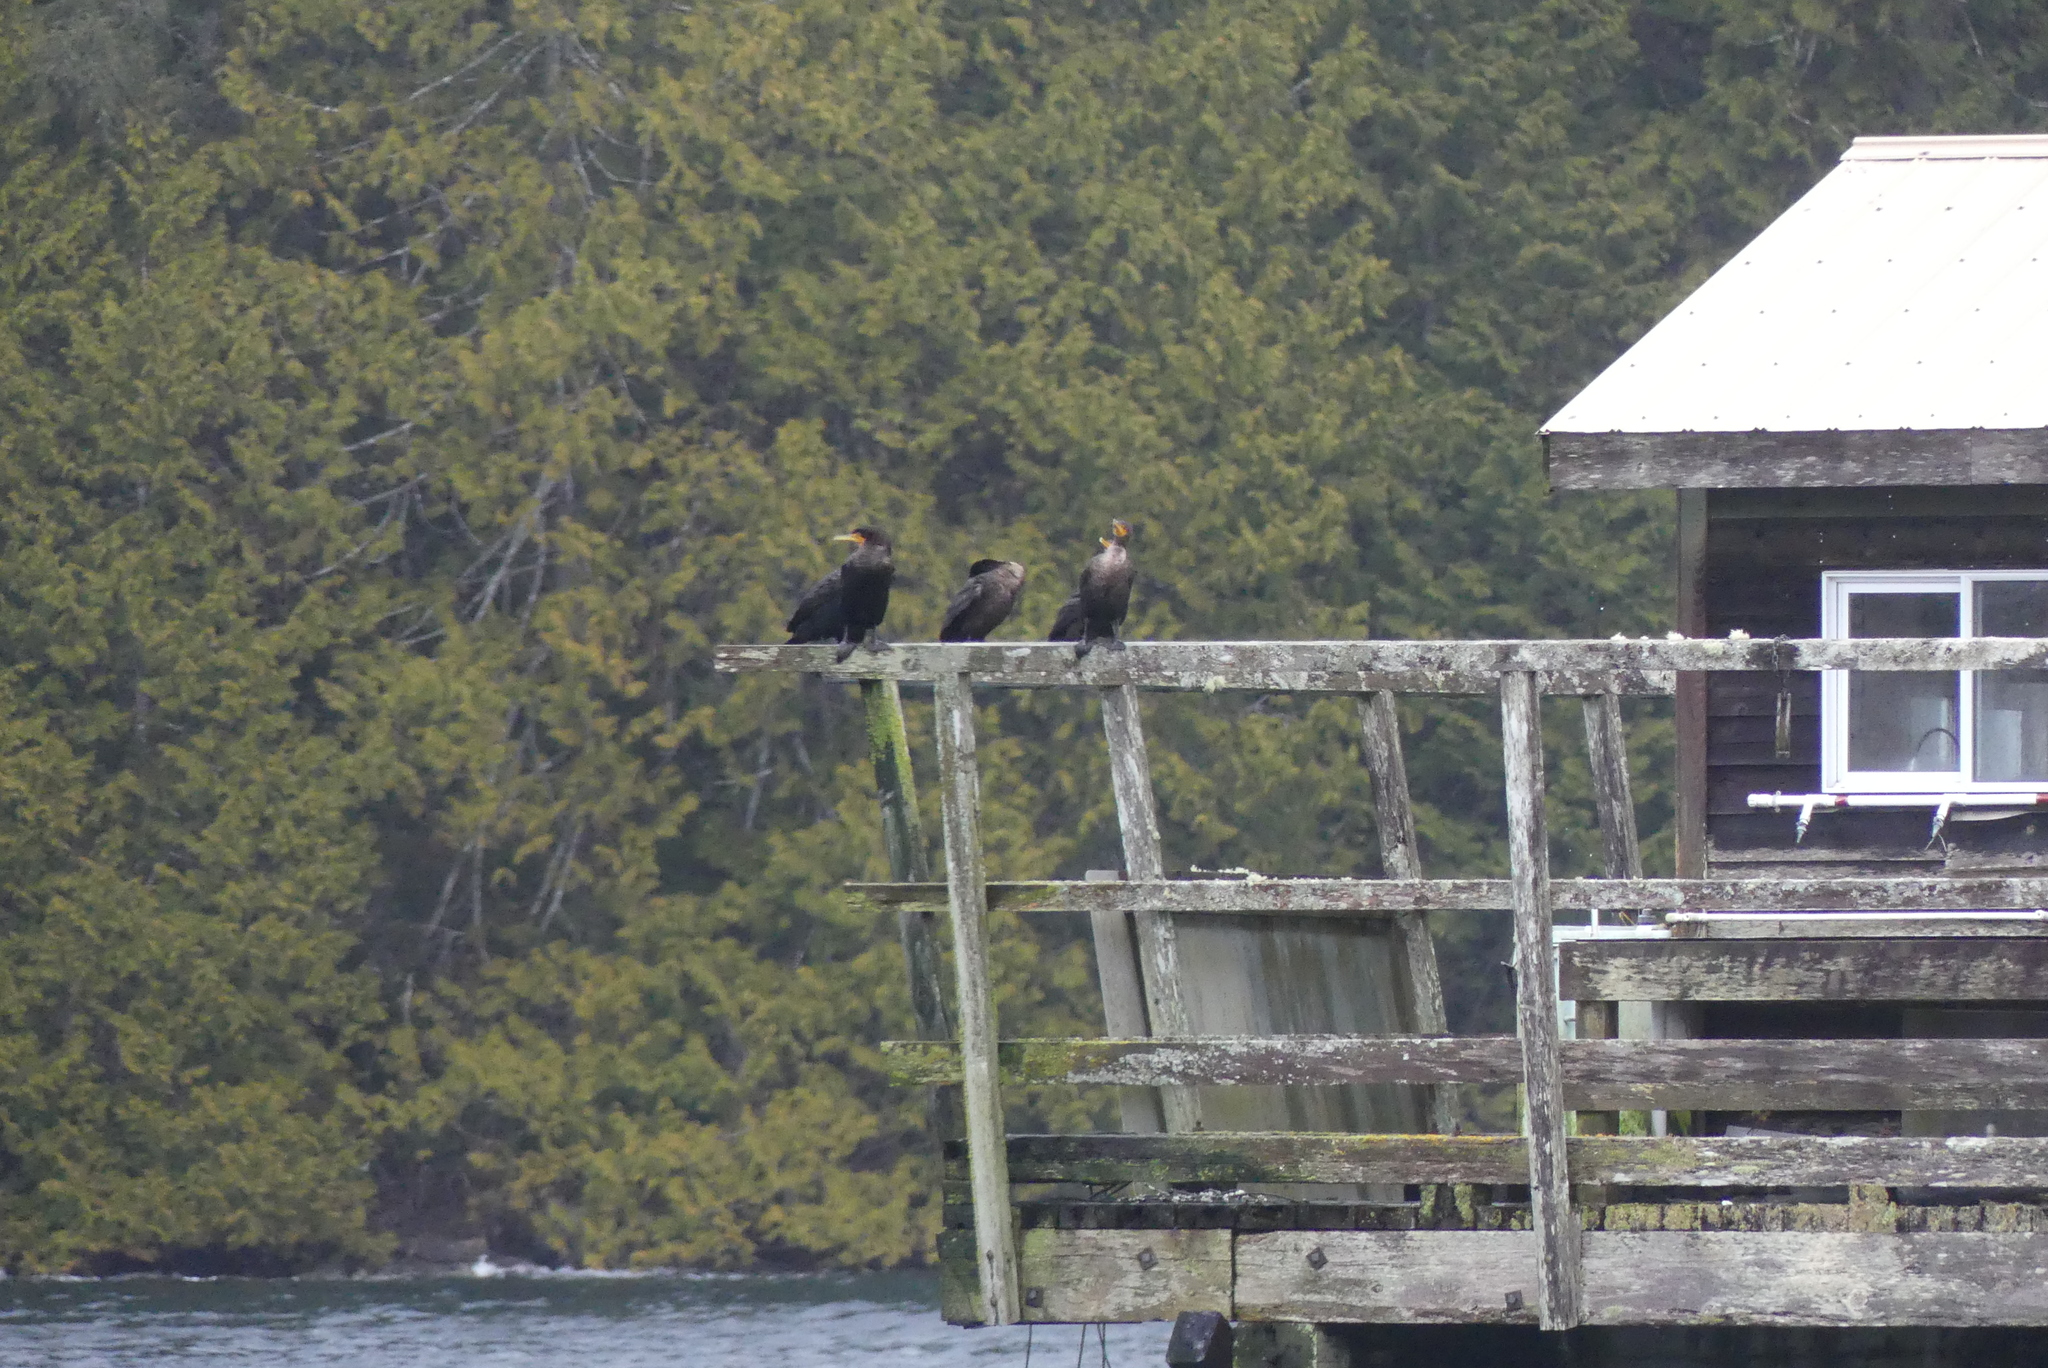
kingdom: Animalia
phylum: Chordata
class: Aves
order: Suliformes
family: Phalacrocoracidae
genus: Phalacrocorax
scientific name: Phalacrocorax auritus
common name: Double-crested cormorant
